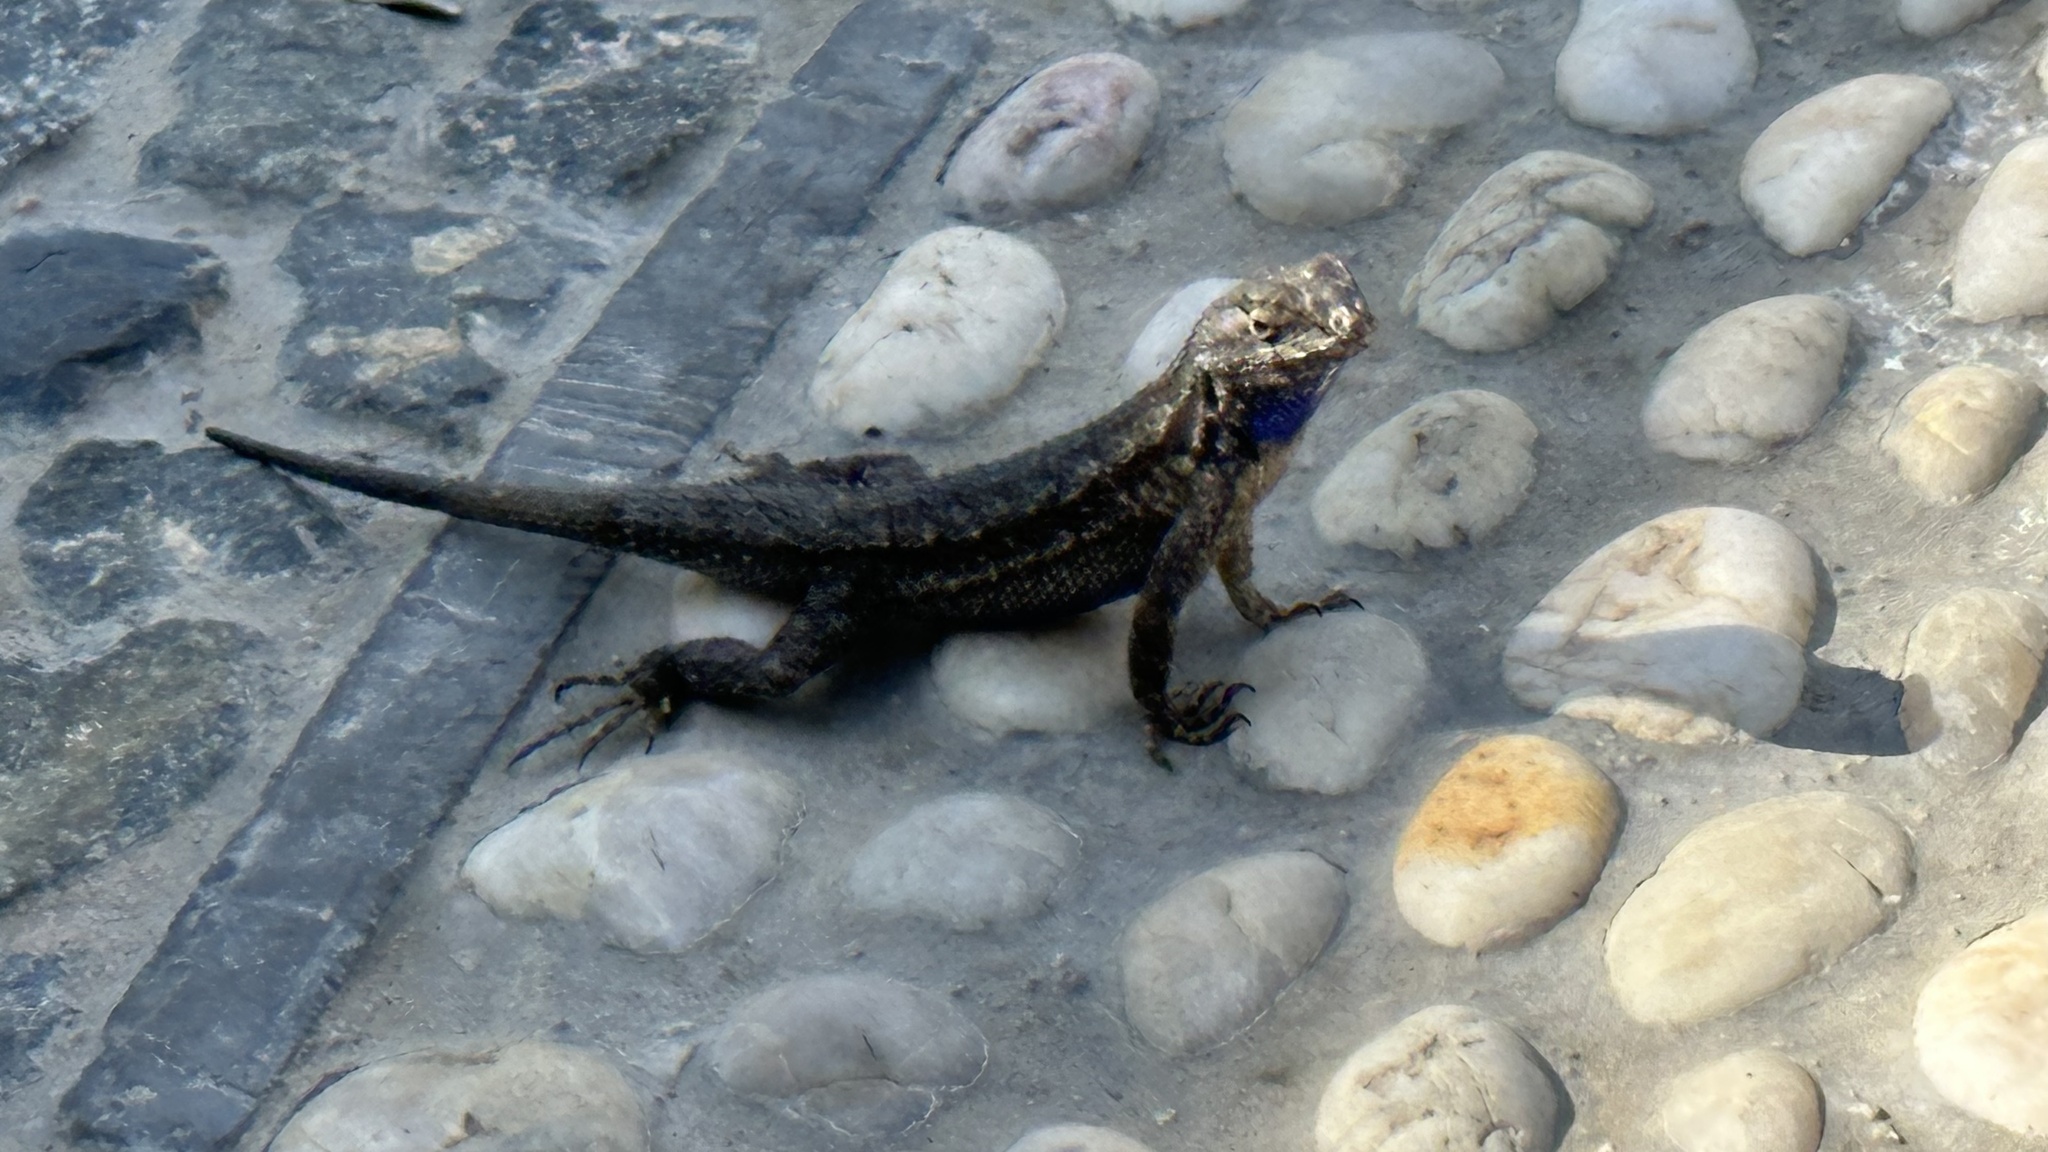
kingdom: Animalia
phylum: Chordata
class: Squamata
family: Phrynosomatidae
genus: Sceloporus
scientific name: Sceloporus occidentalis
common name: Western fence lizard
